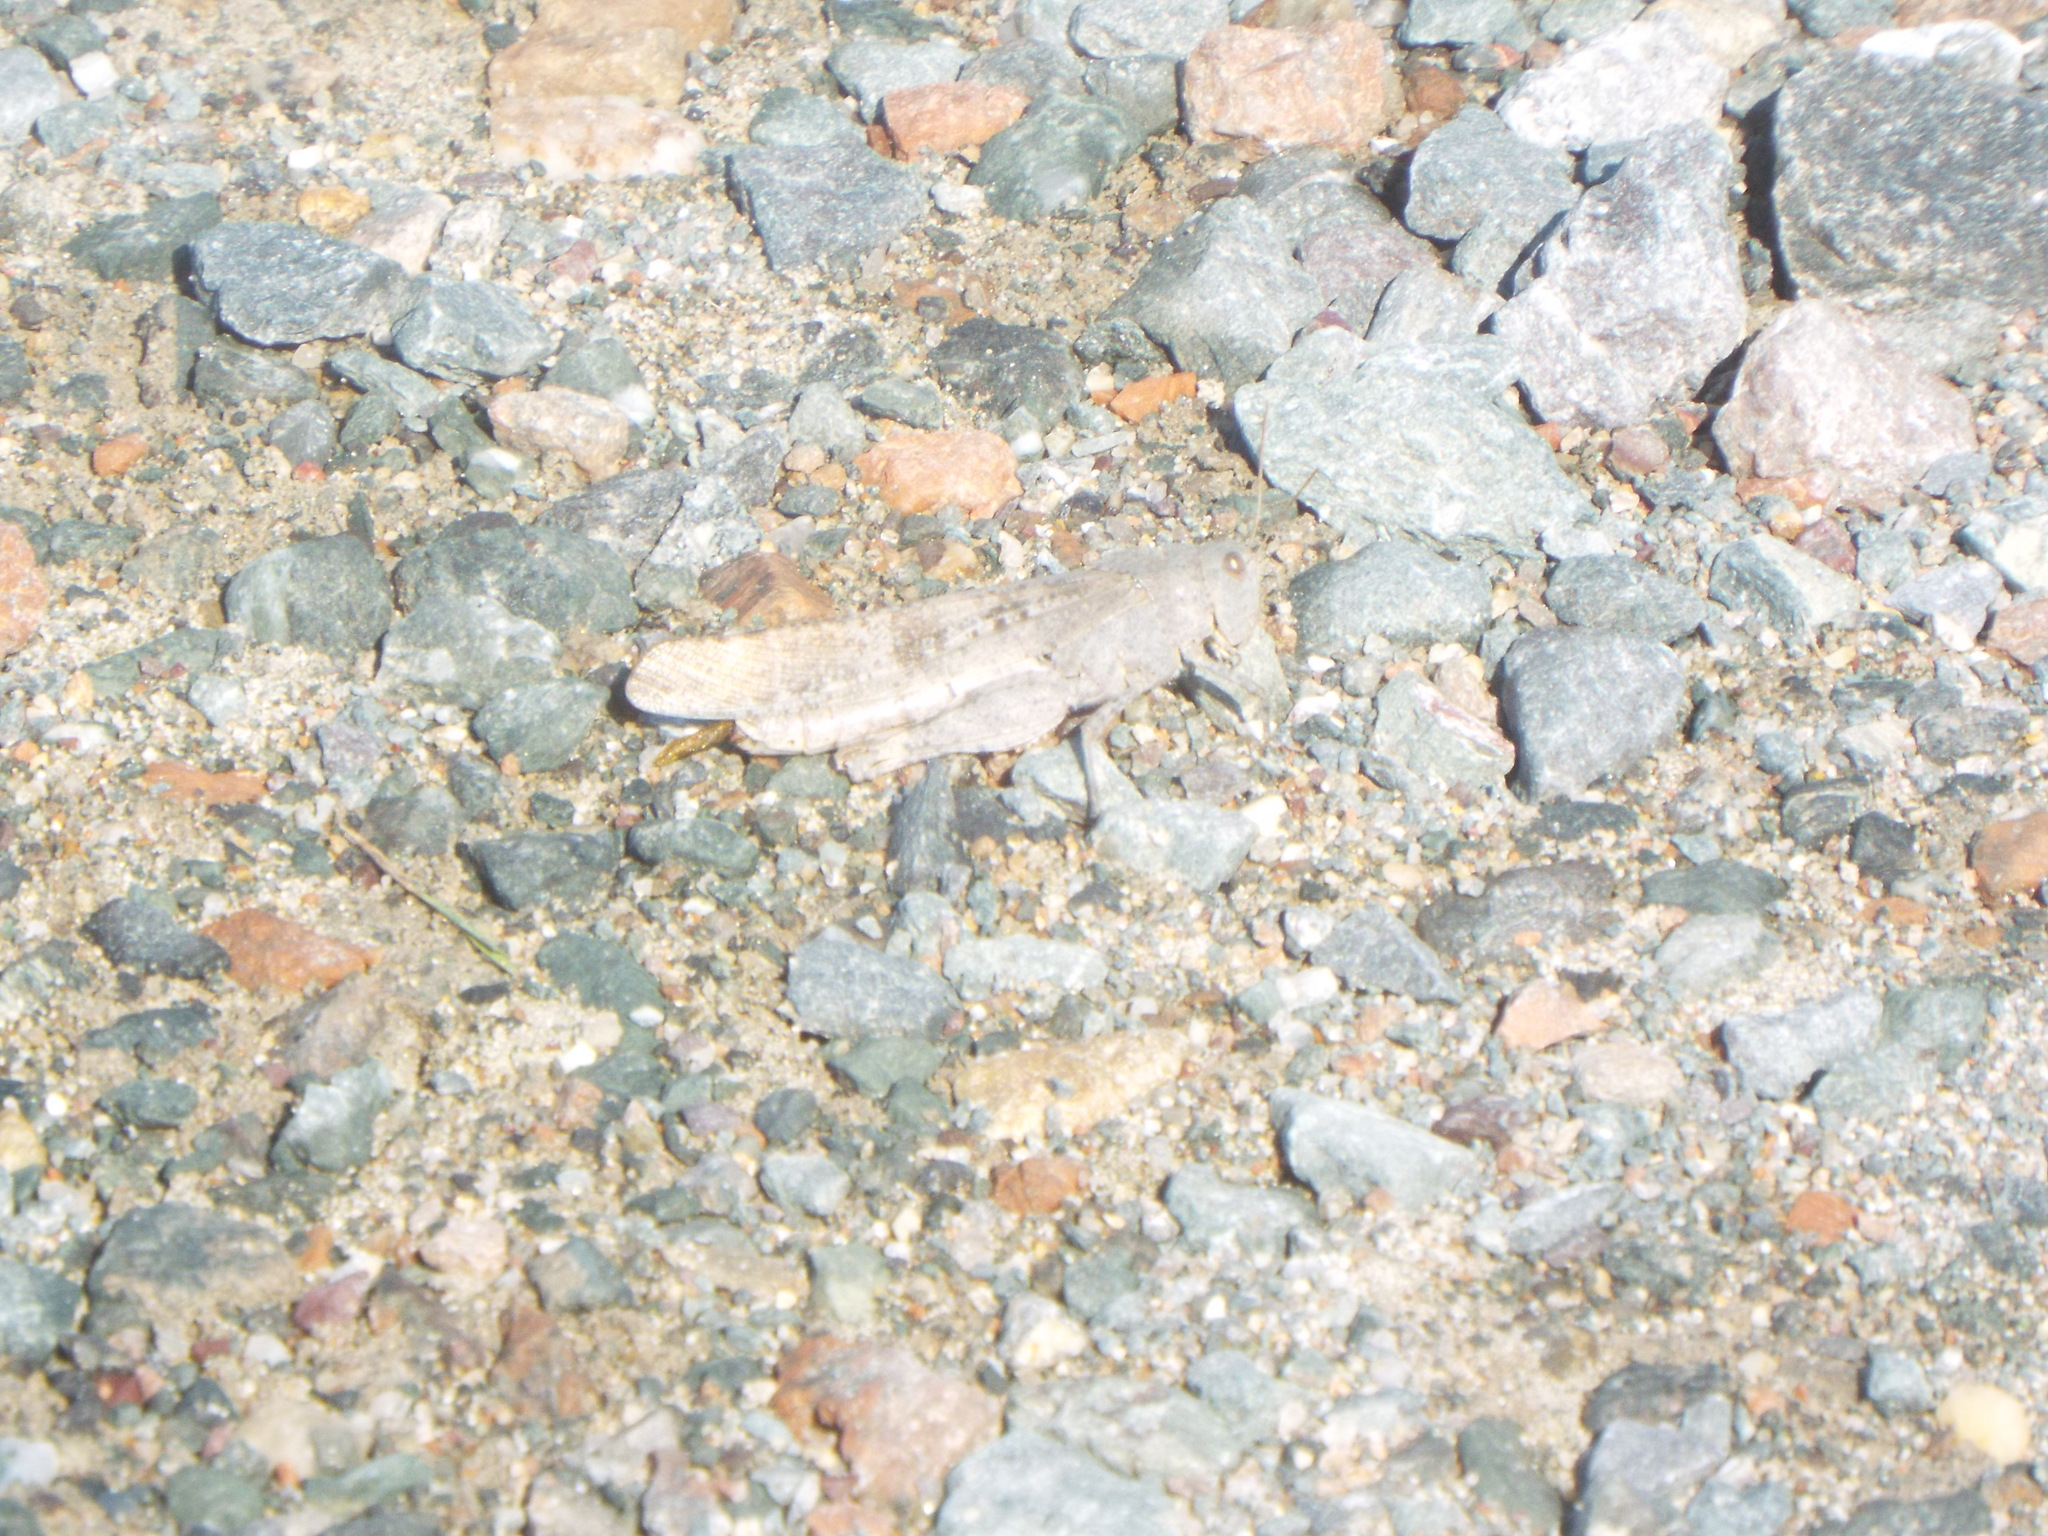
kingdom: Animalia
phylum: Arthropoda
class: Insecta
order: Orthoptera
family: Acrididae
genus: Dissosteira
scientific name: Dissosteira carolina
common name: Carolina grasshopper
